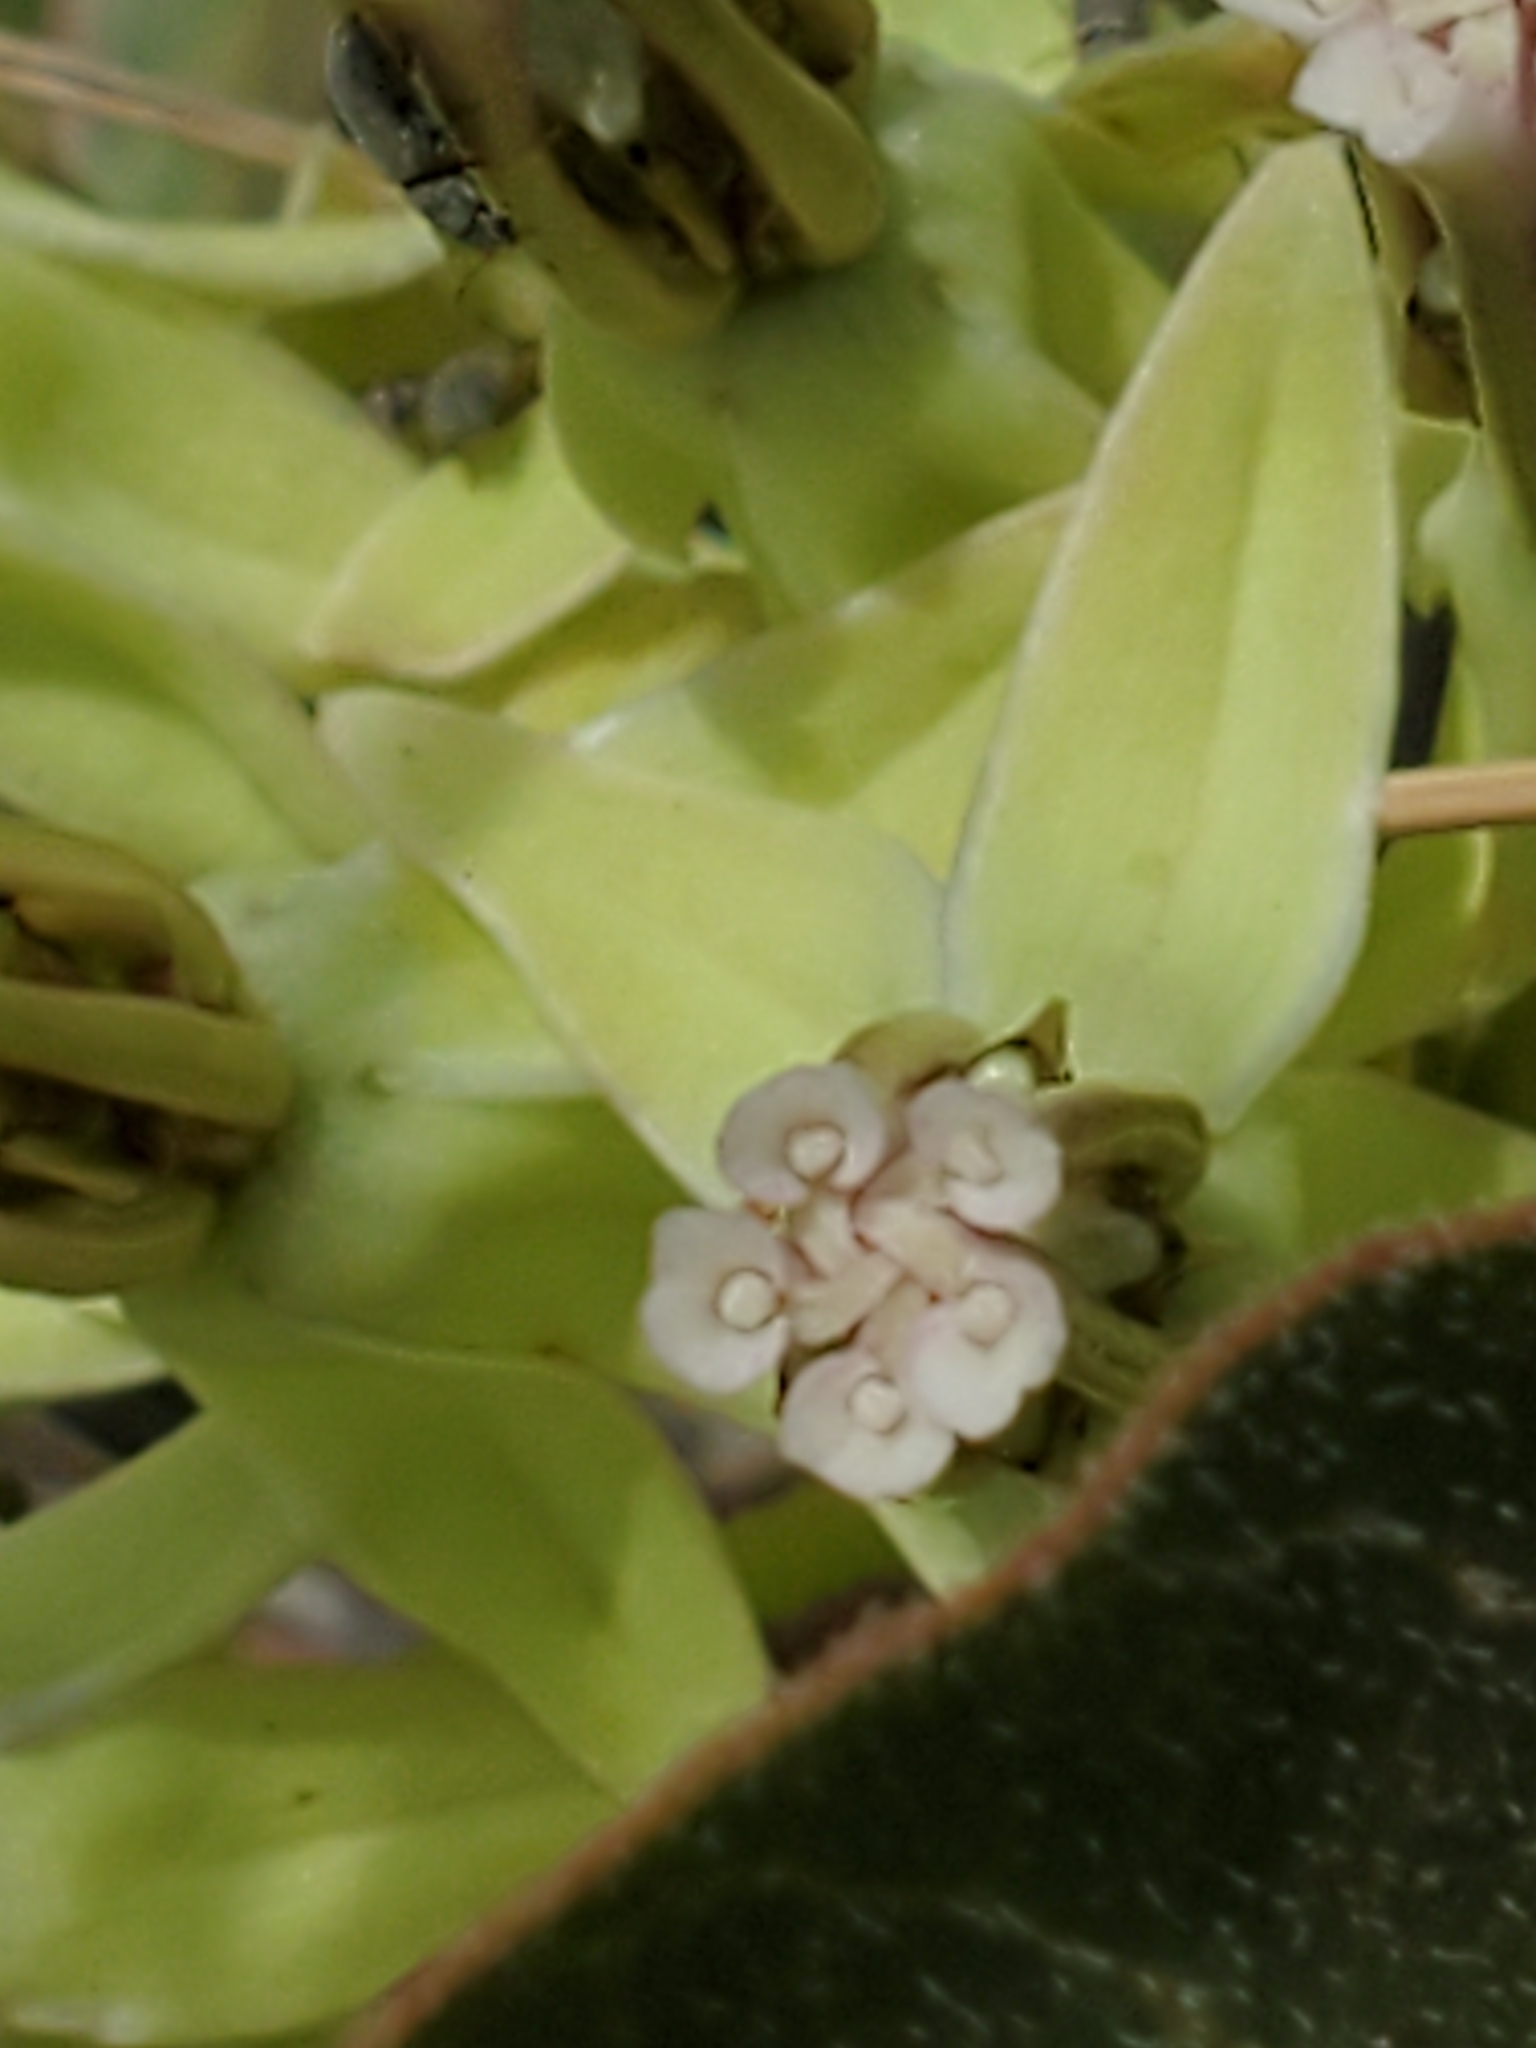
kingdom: Plantae
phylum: Tracheophyta
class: Magnoliopsida
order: Gentianales
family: Apocynaceae
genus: Asclepias
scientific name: Asclepias oenotheroides
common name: Zizotes milkweed
